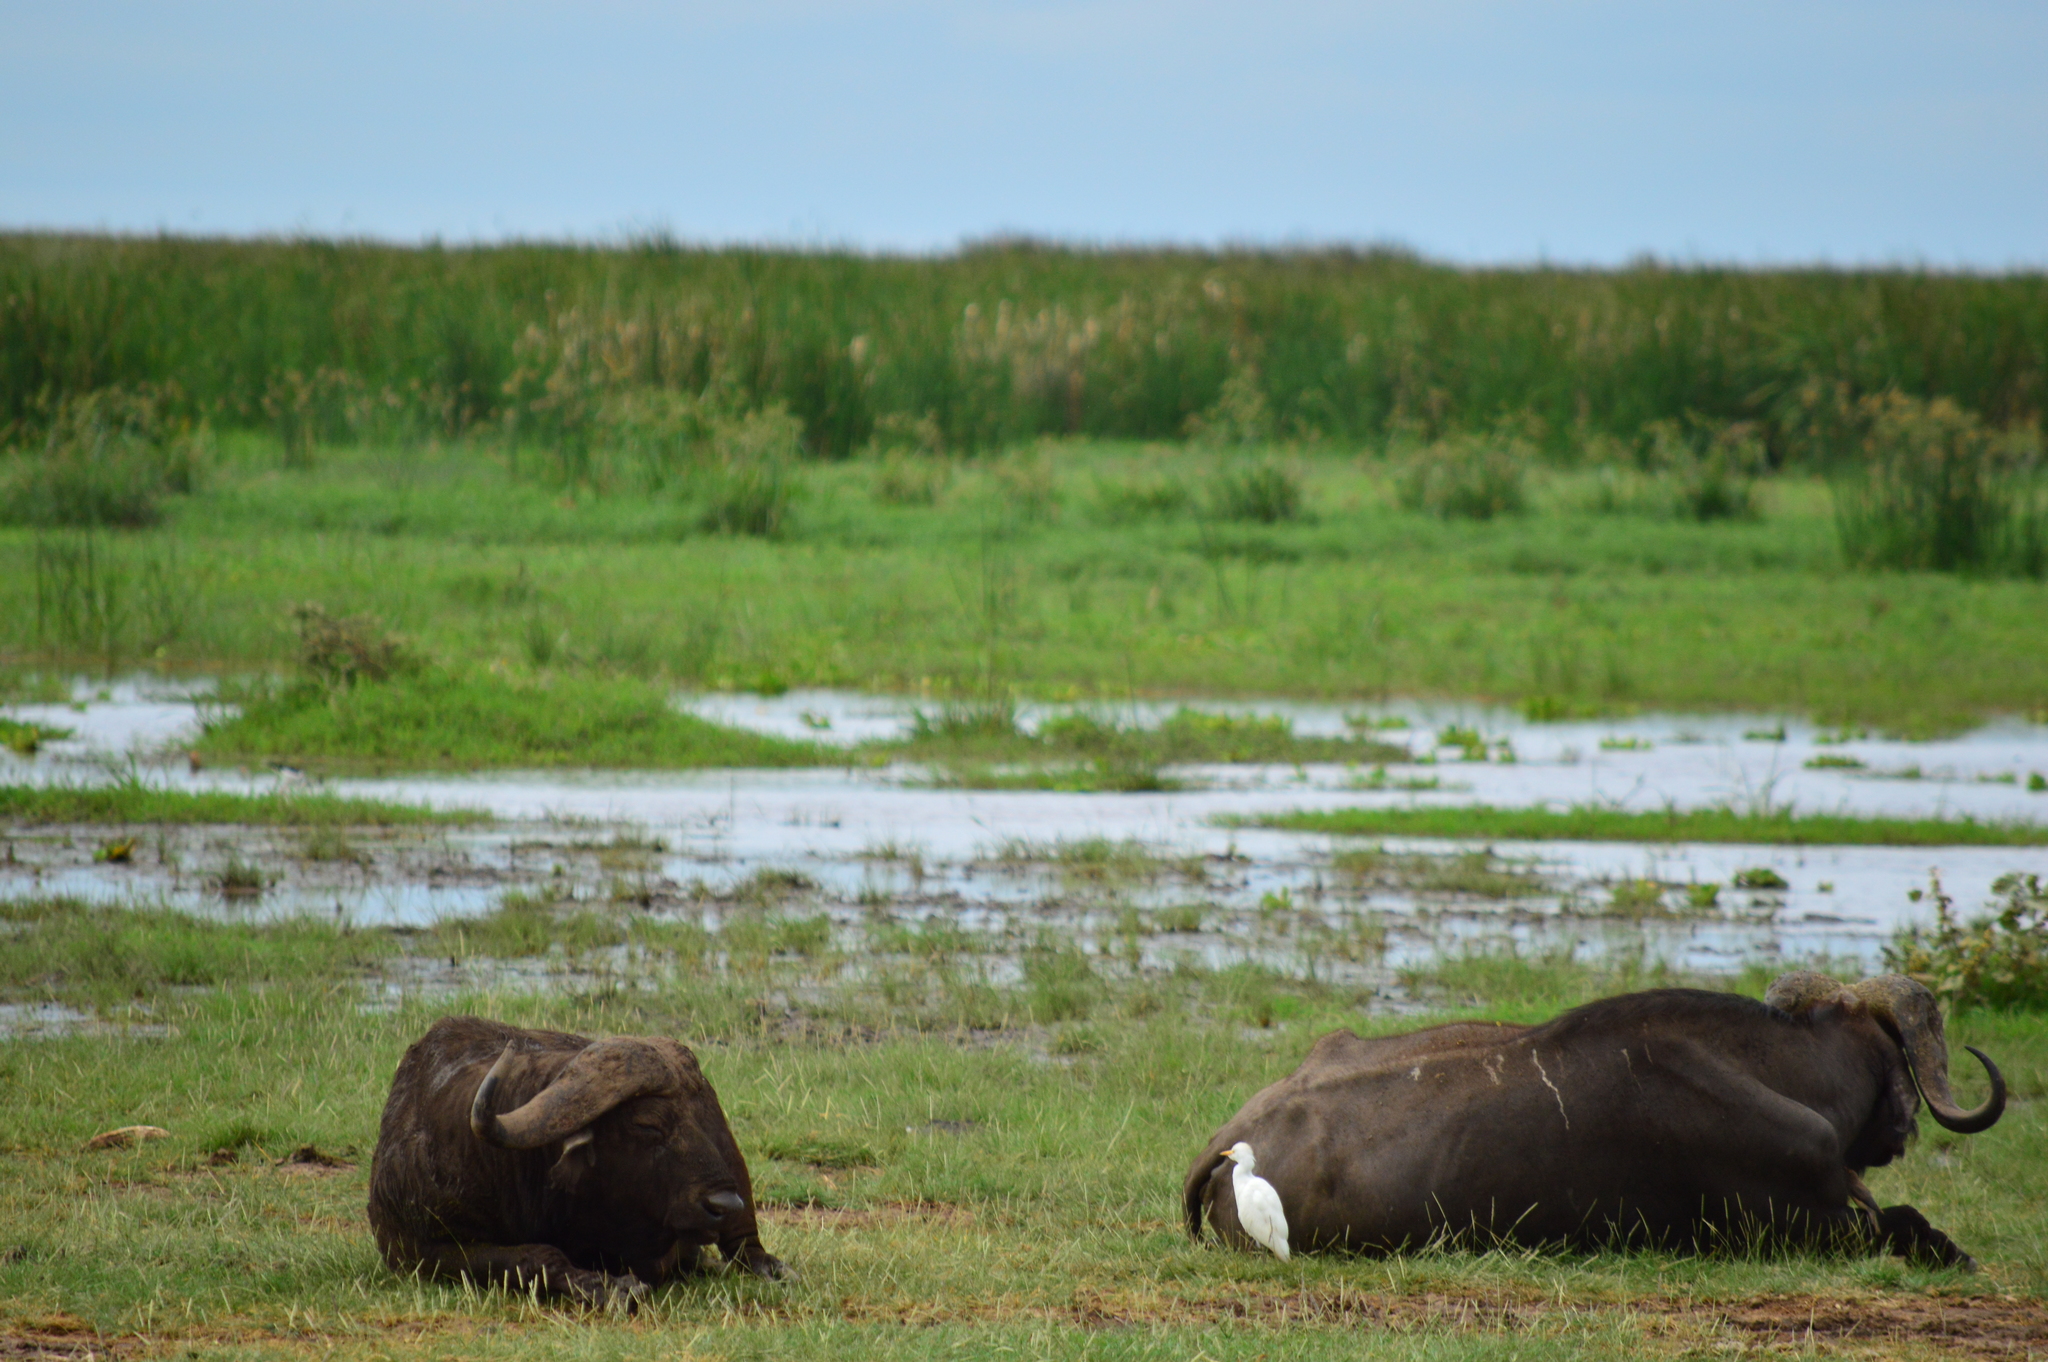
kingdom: Animalia
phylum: Chordata
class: Mammalia
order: Artiodactyla
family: Bovidae
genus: Syncerus
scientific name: Syncerus caffer
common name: African buffalo
